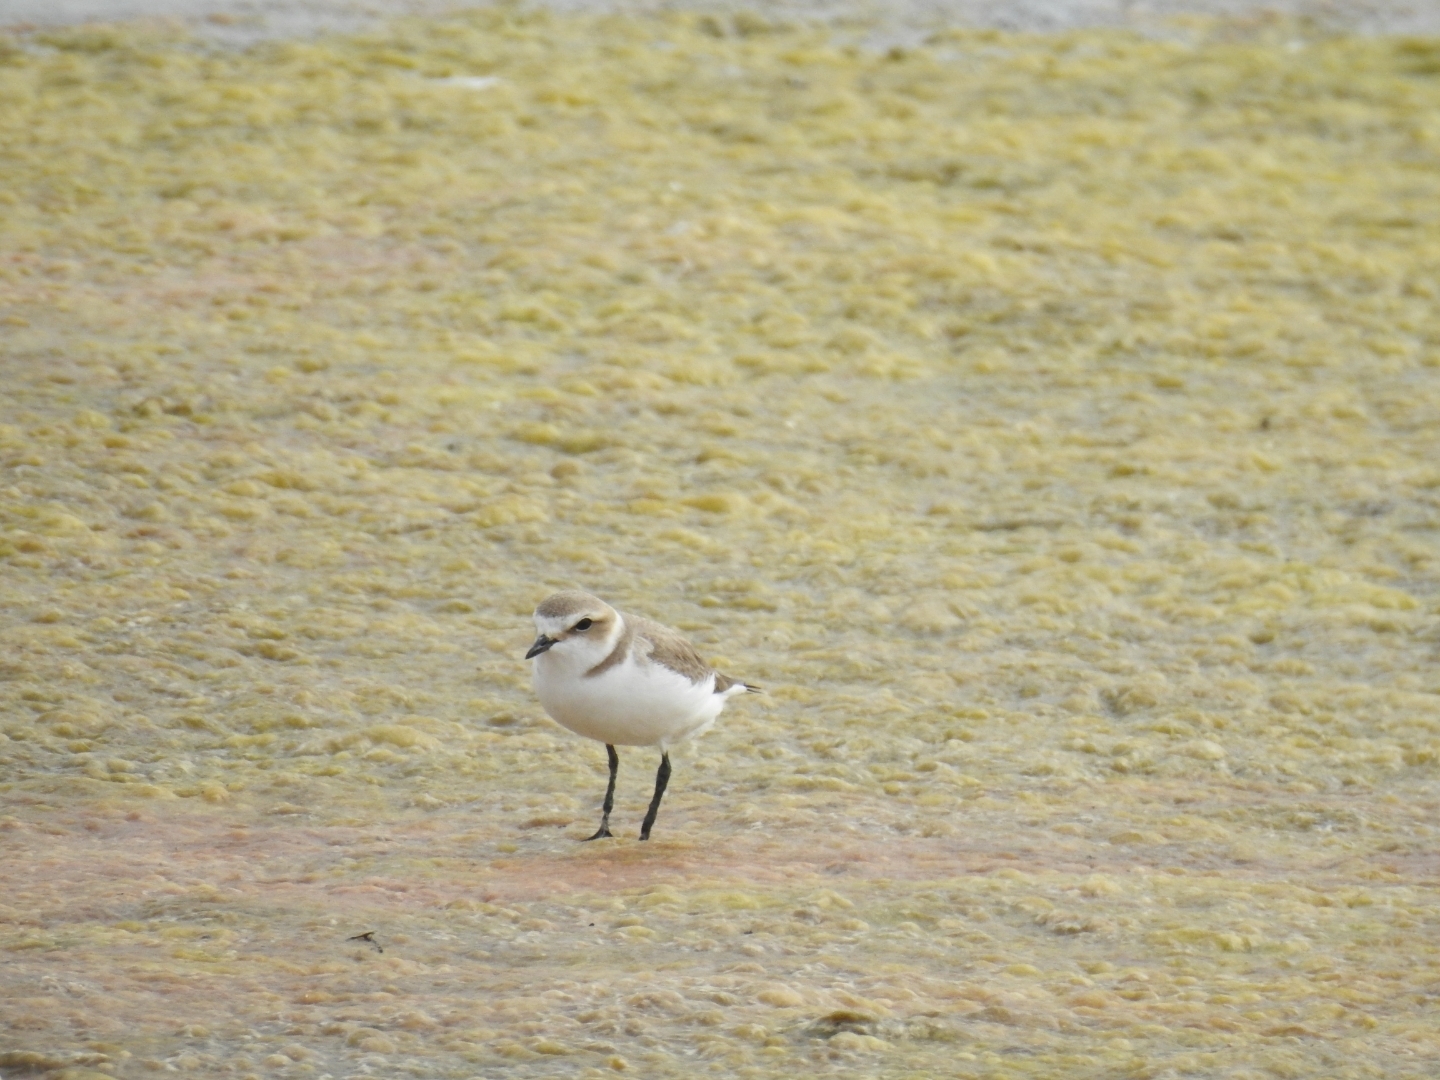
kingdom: Animalia
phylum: Chordata
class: Aves
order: Charadriiformes
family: Charadriidae
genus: Charadrius
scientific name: Charadrius alexandrinus
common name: Kentish plover
